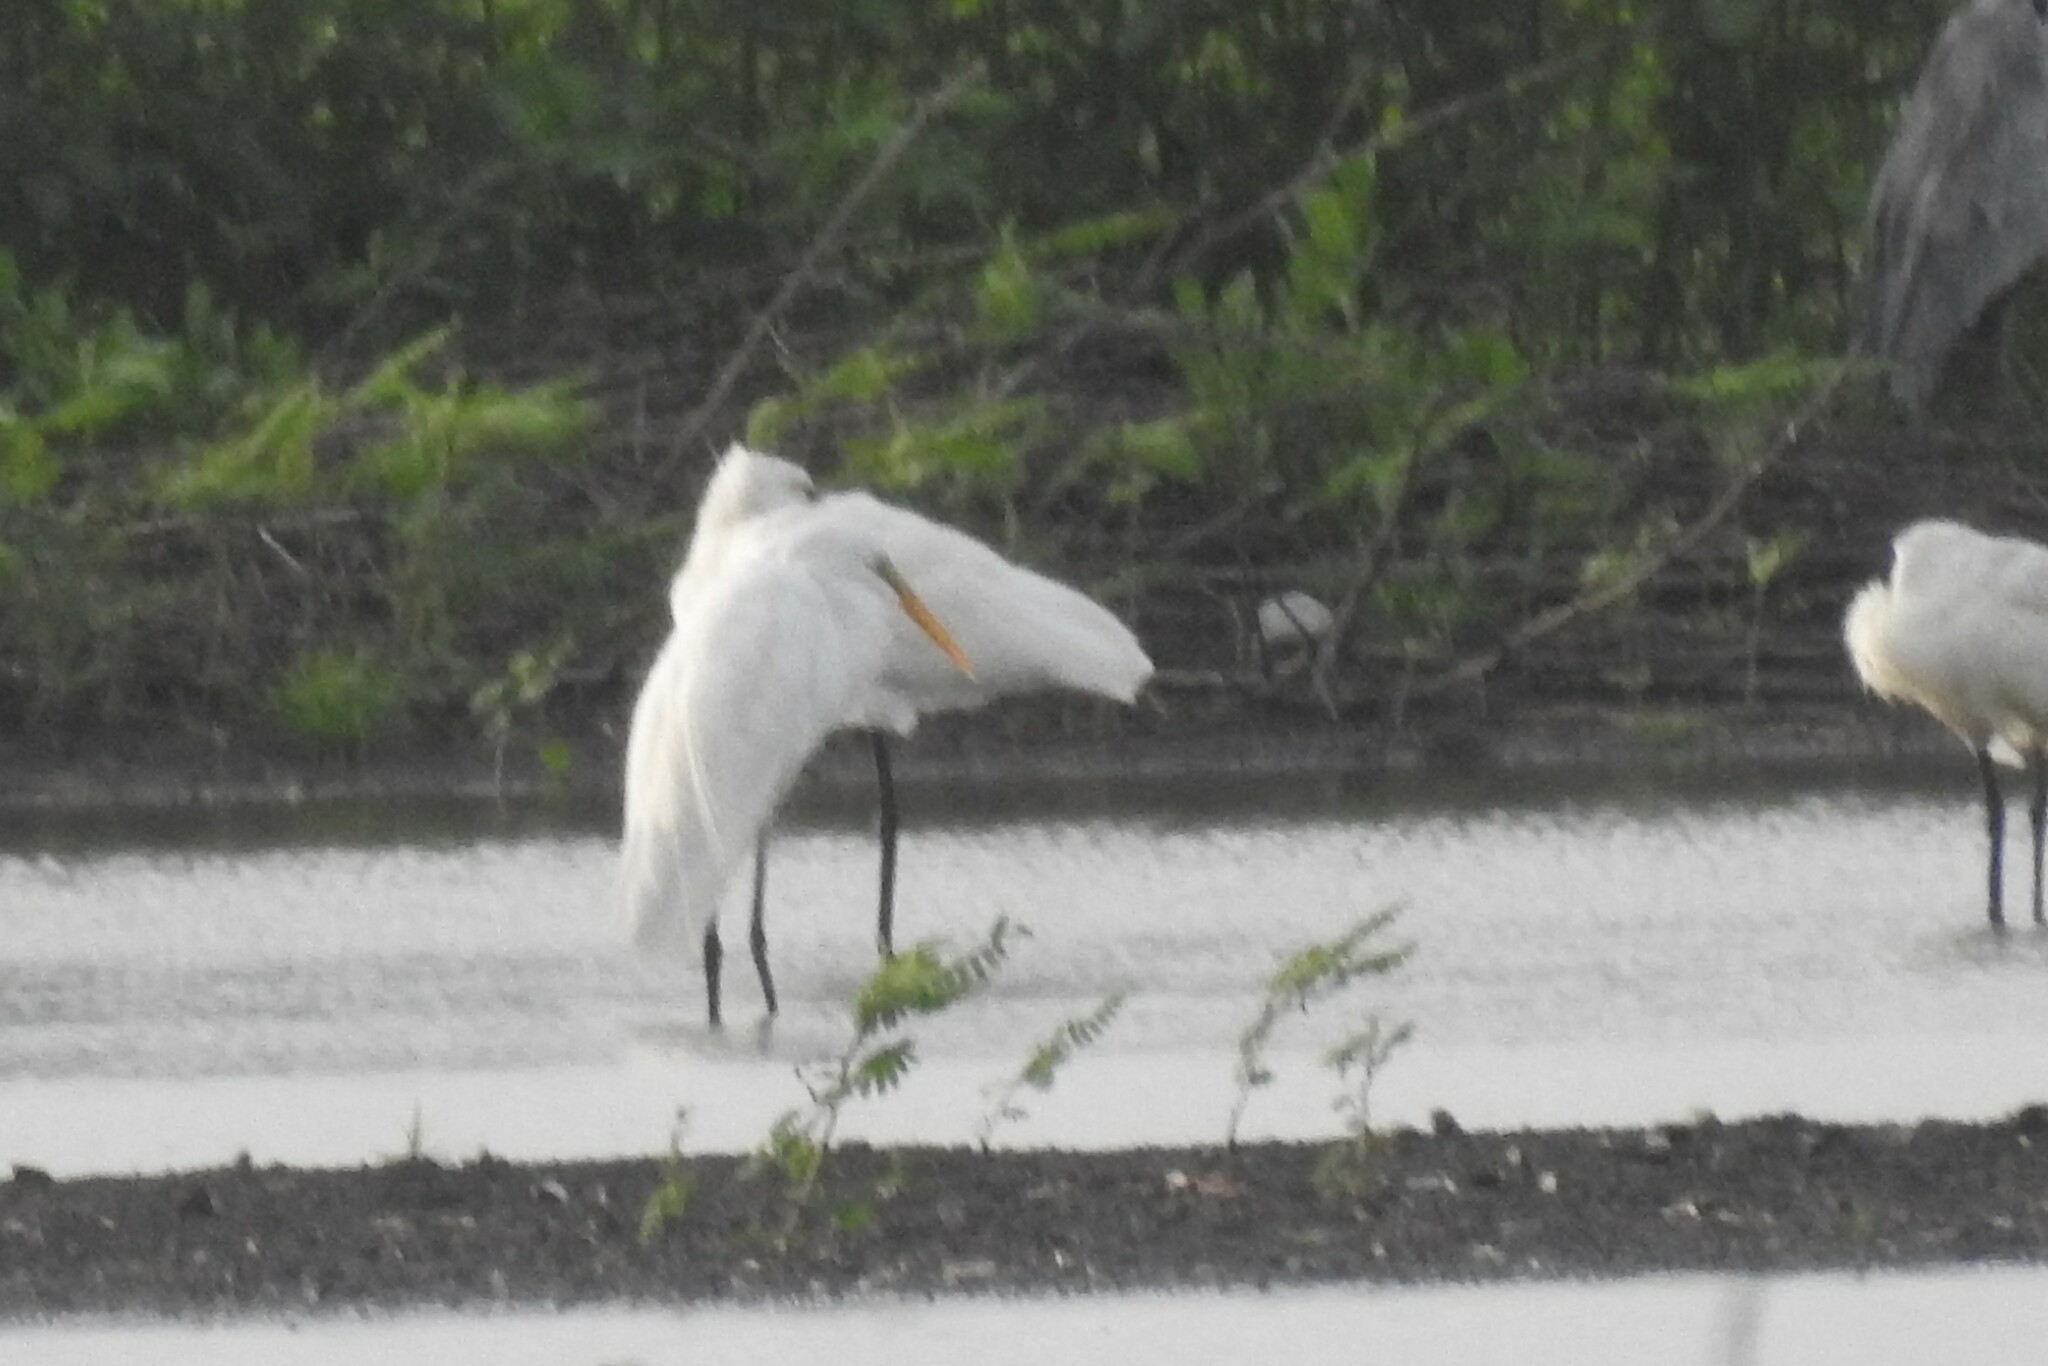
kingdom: Animalia
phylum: Chordata
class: Aves
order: Pelecaniformes
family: Ardeidae
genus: Ardea
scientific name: Ardea alba
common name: Great egret
